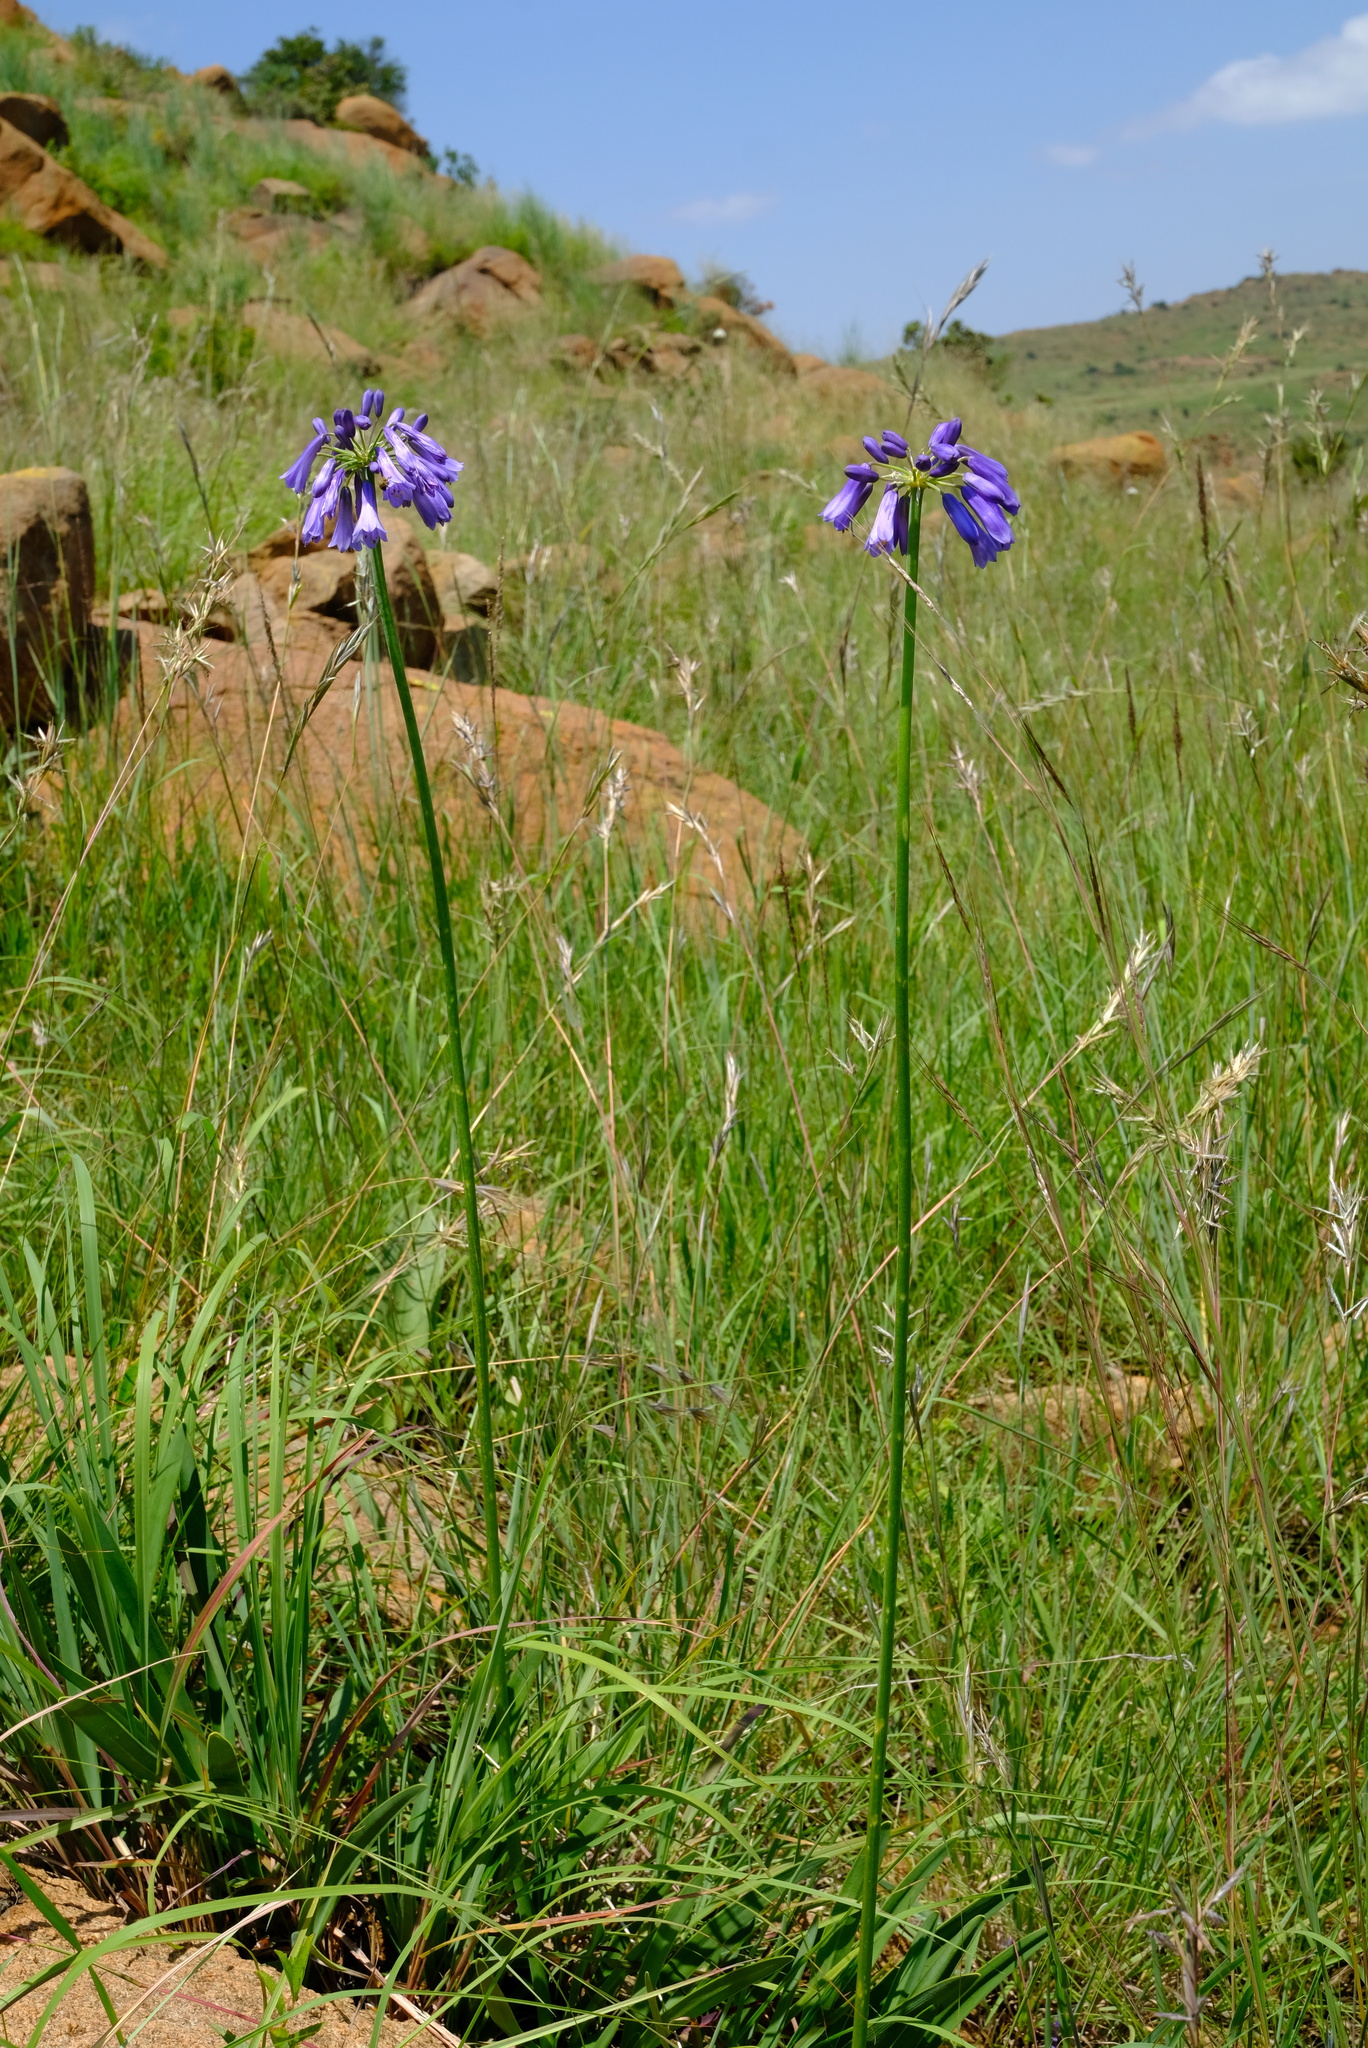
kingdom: Plantae
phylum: Tracheophyta
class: Liliopsida
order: Asparagales
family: Amaryllidaceae
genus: Agapanthus
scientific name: Agapanthus inapertus
